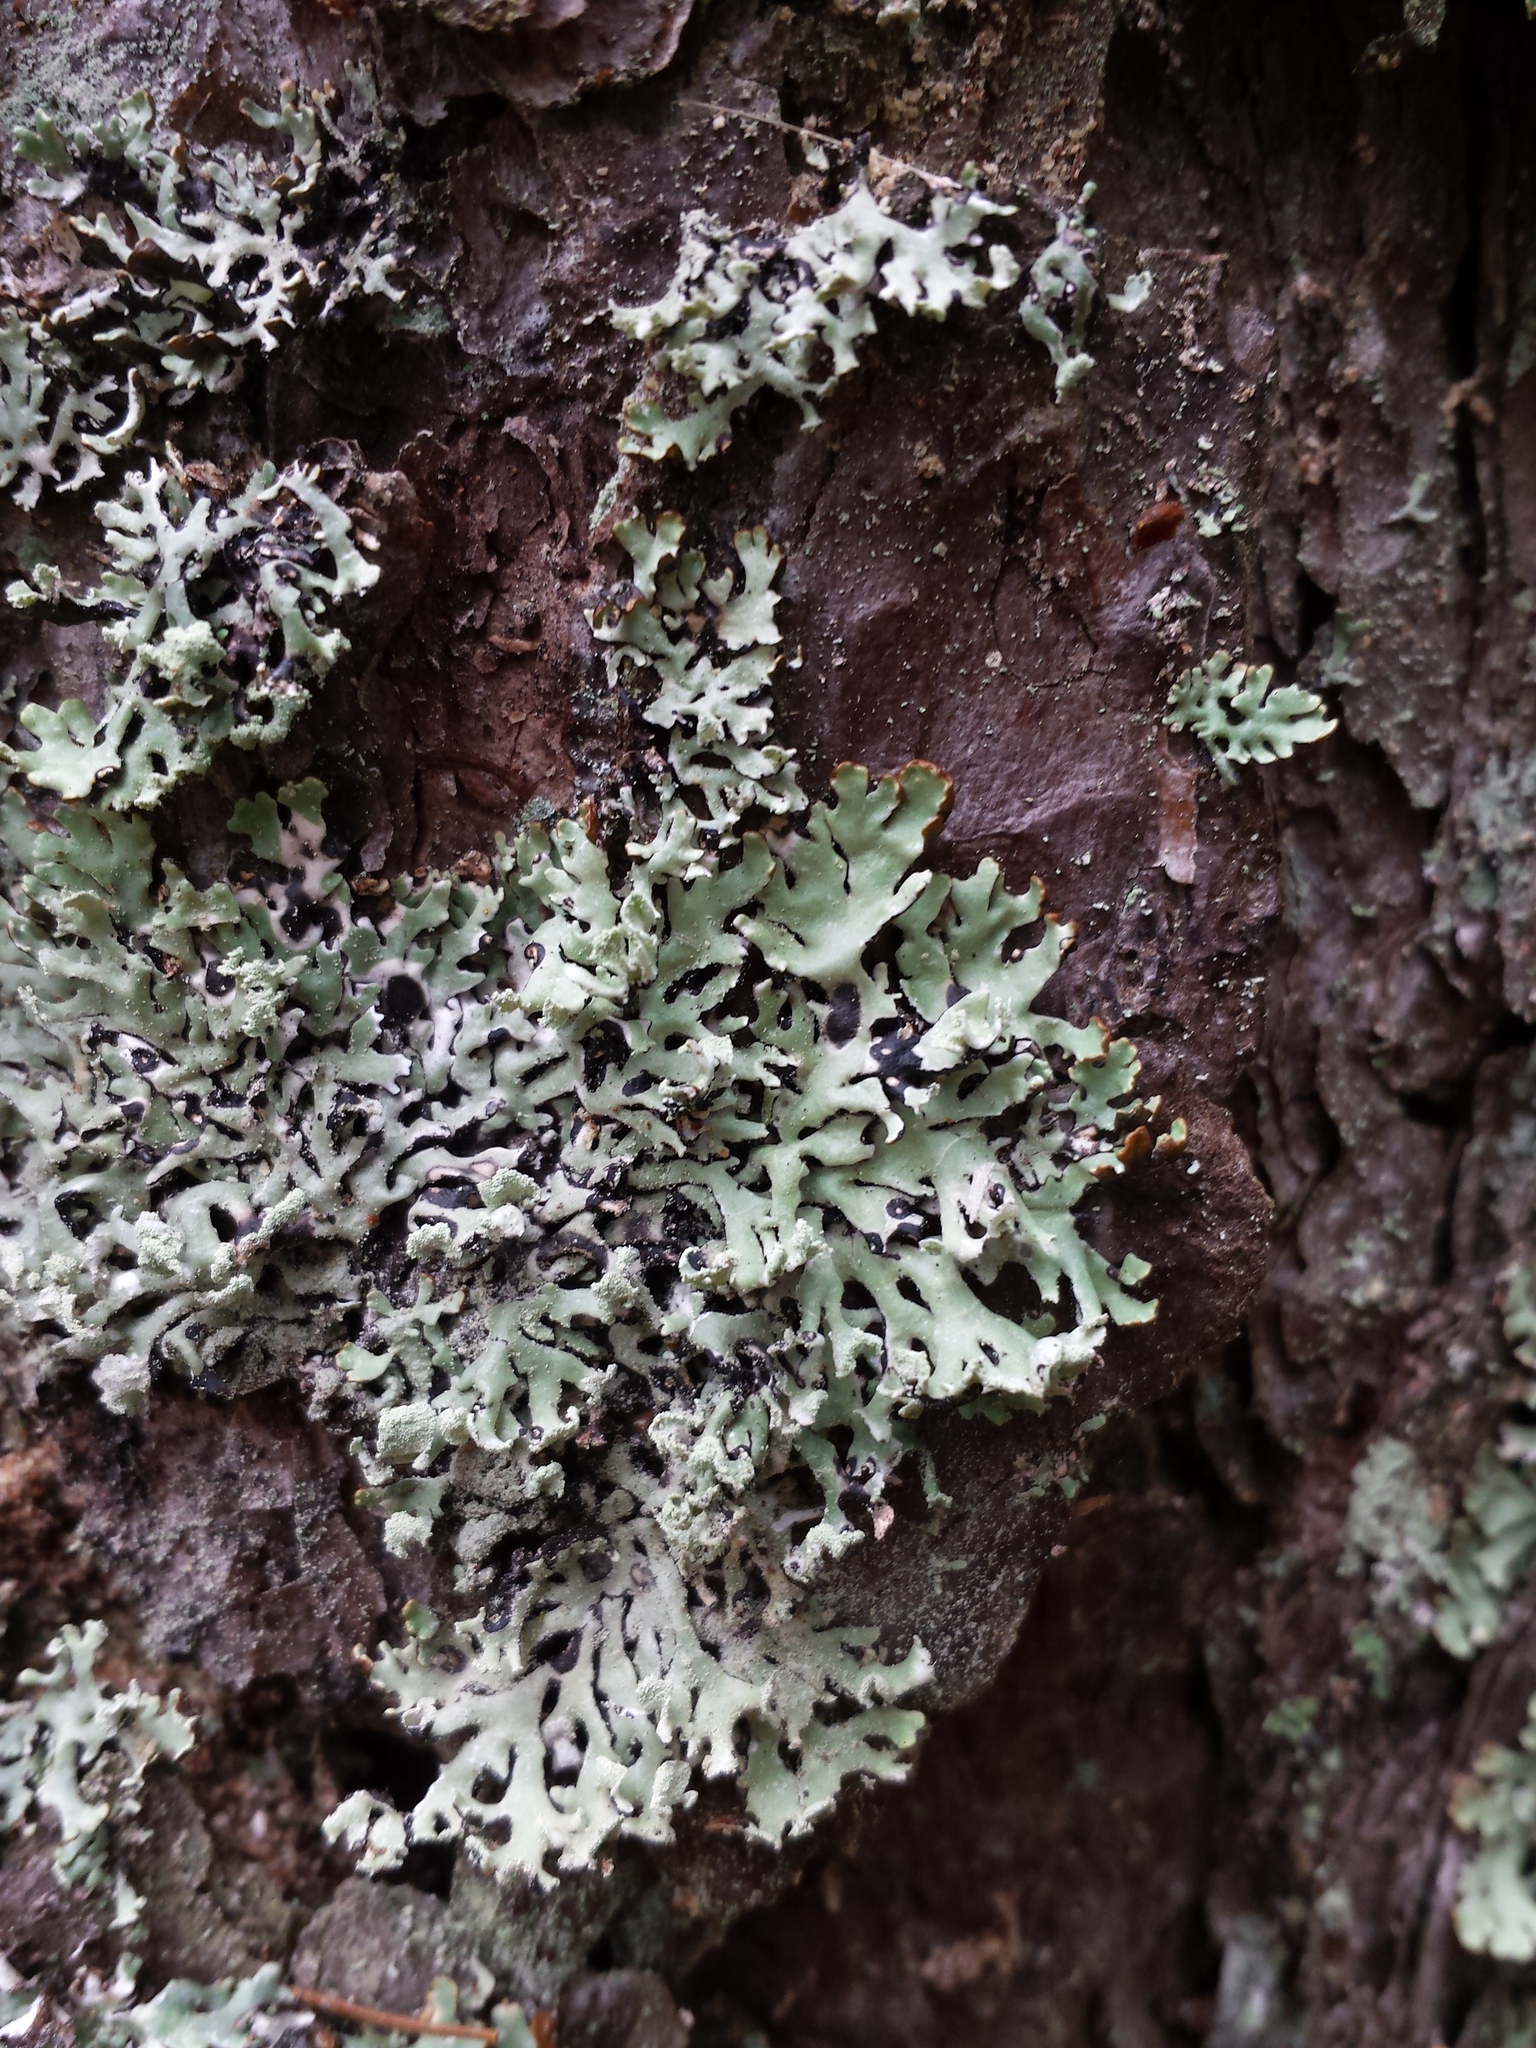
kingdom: Fungi
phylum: Ascomycota
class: Lecanoromycetes
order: Lecanorales
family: Parmeliaceae
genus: Hypogymnia
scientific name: Hypogymnia physodes
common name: Dark crottle
